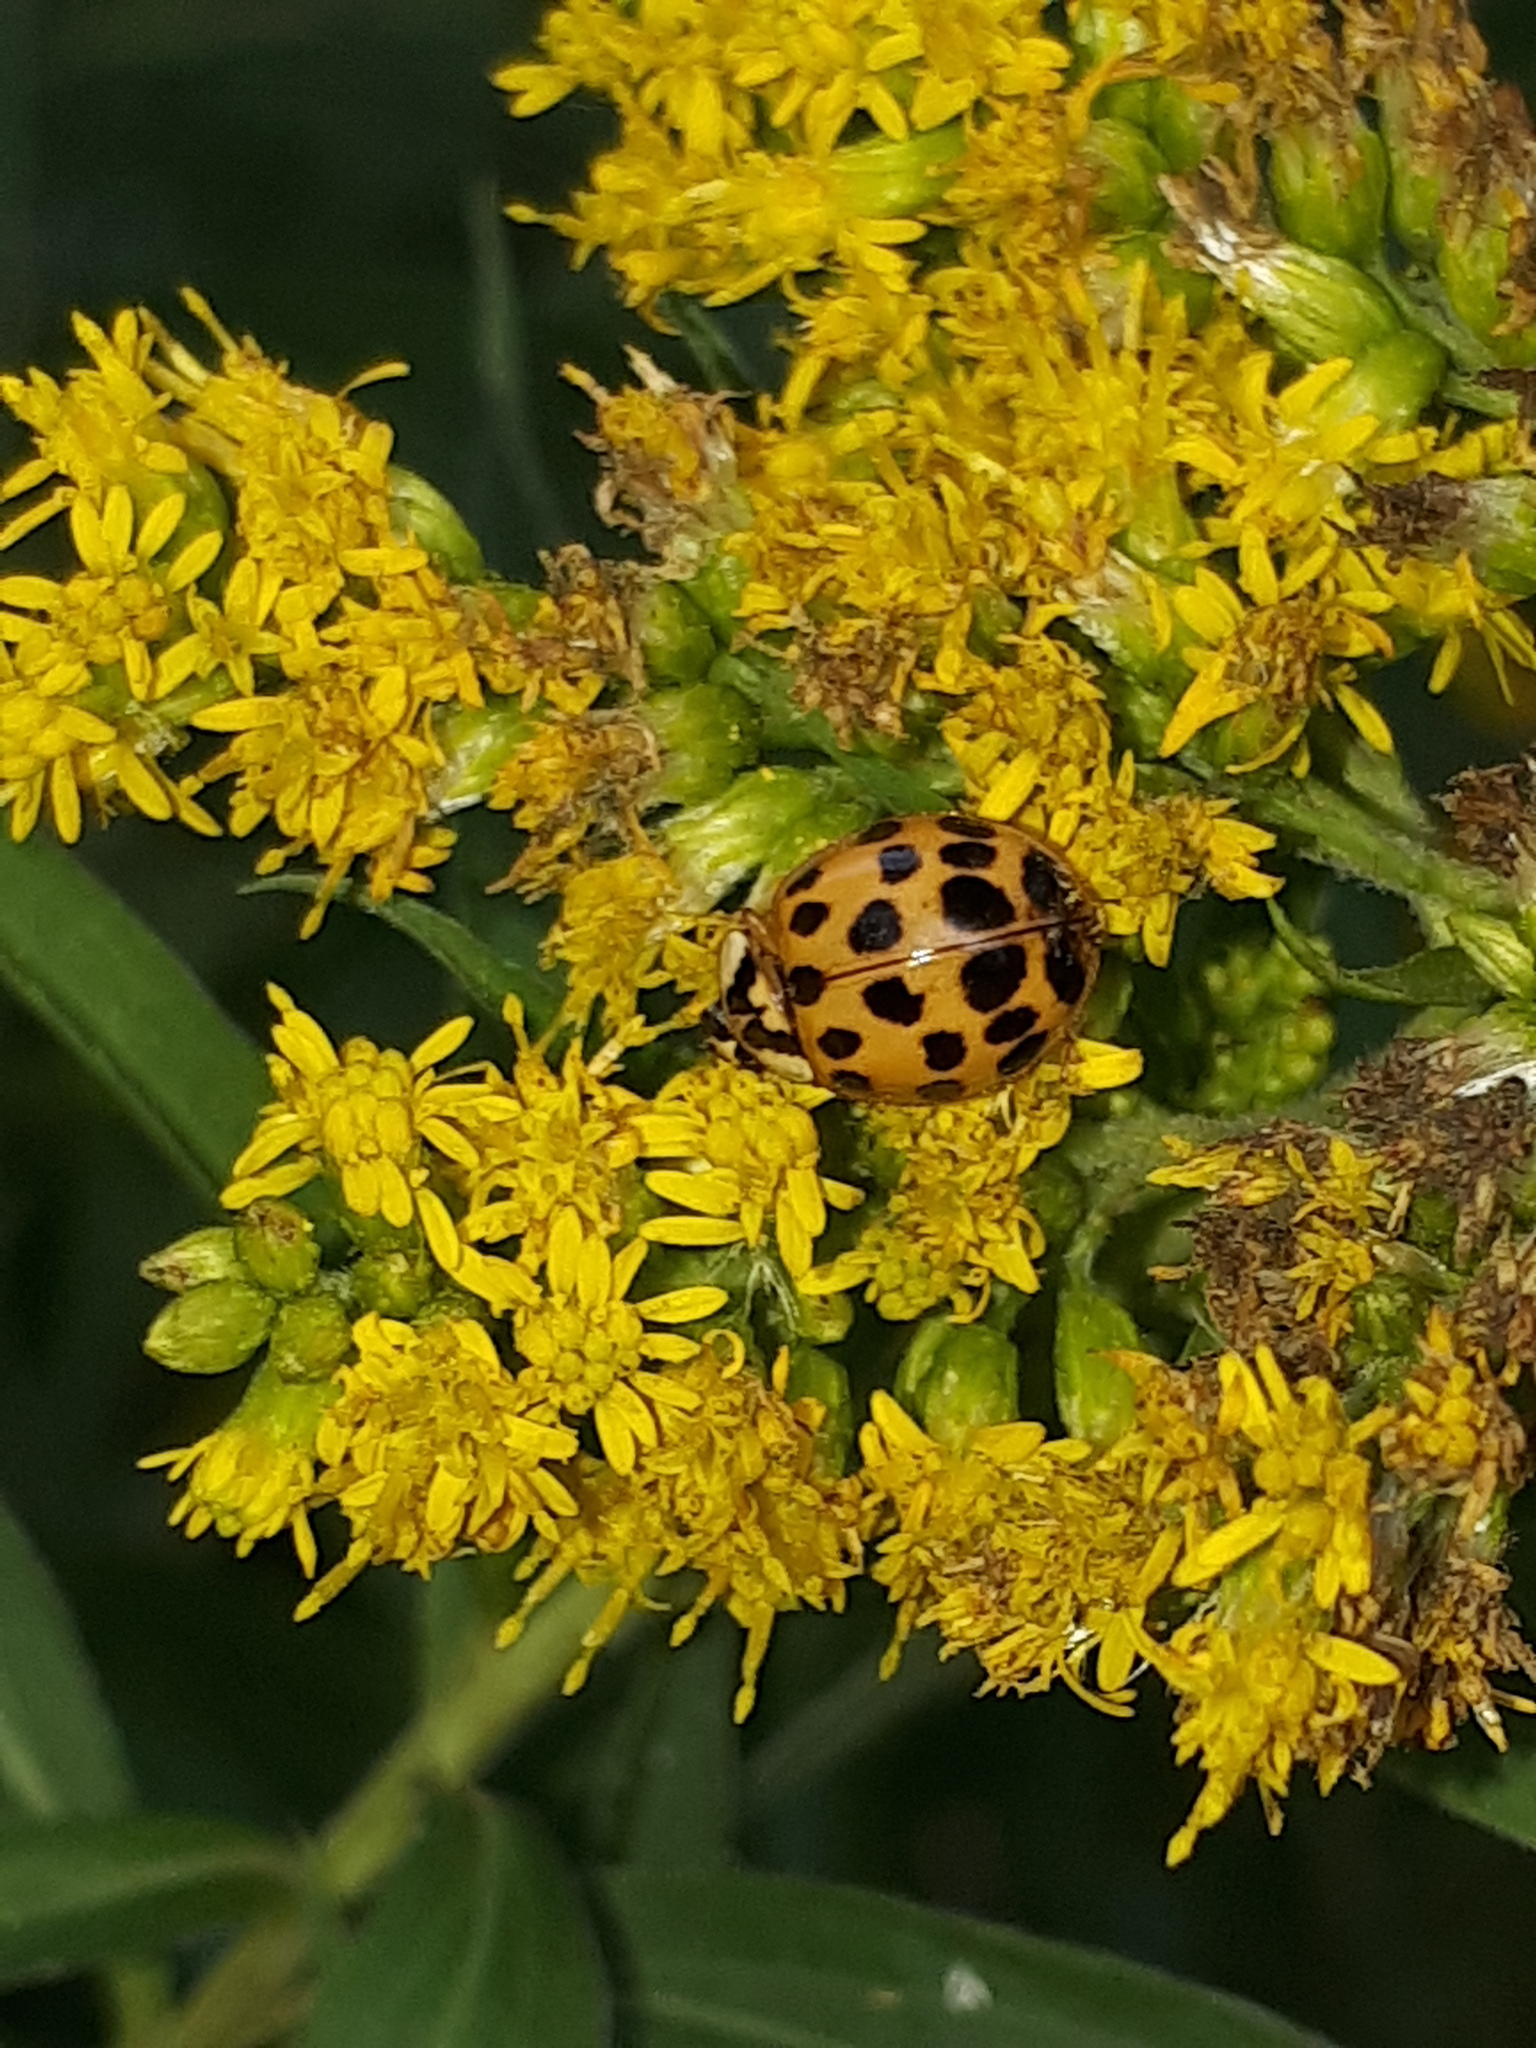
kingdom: Animalia
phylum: Arthropoda
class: Insecta
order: Coleoptera
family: Coccinellidae
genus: Harmonia
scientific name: Harmonia axyridis
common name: Harlequin ladybird
